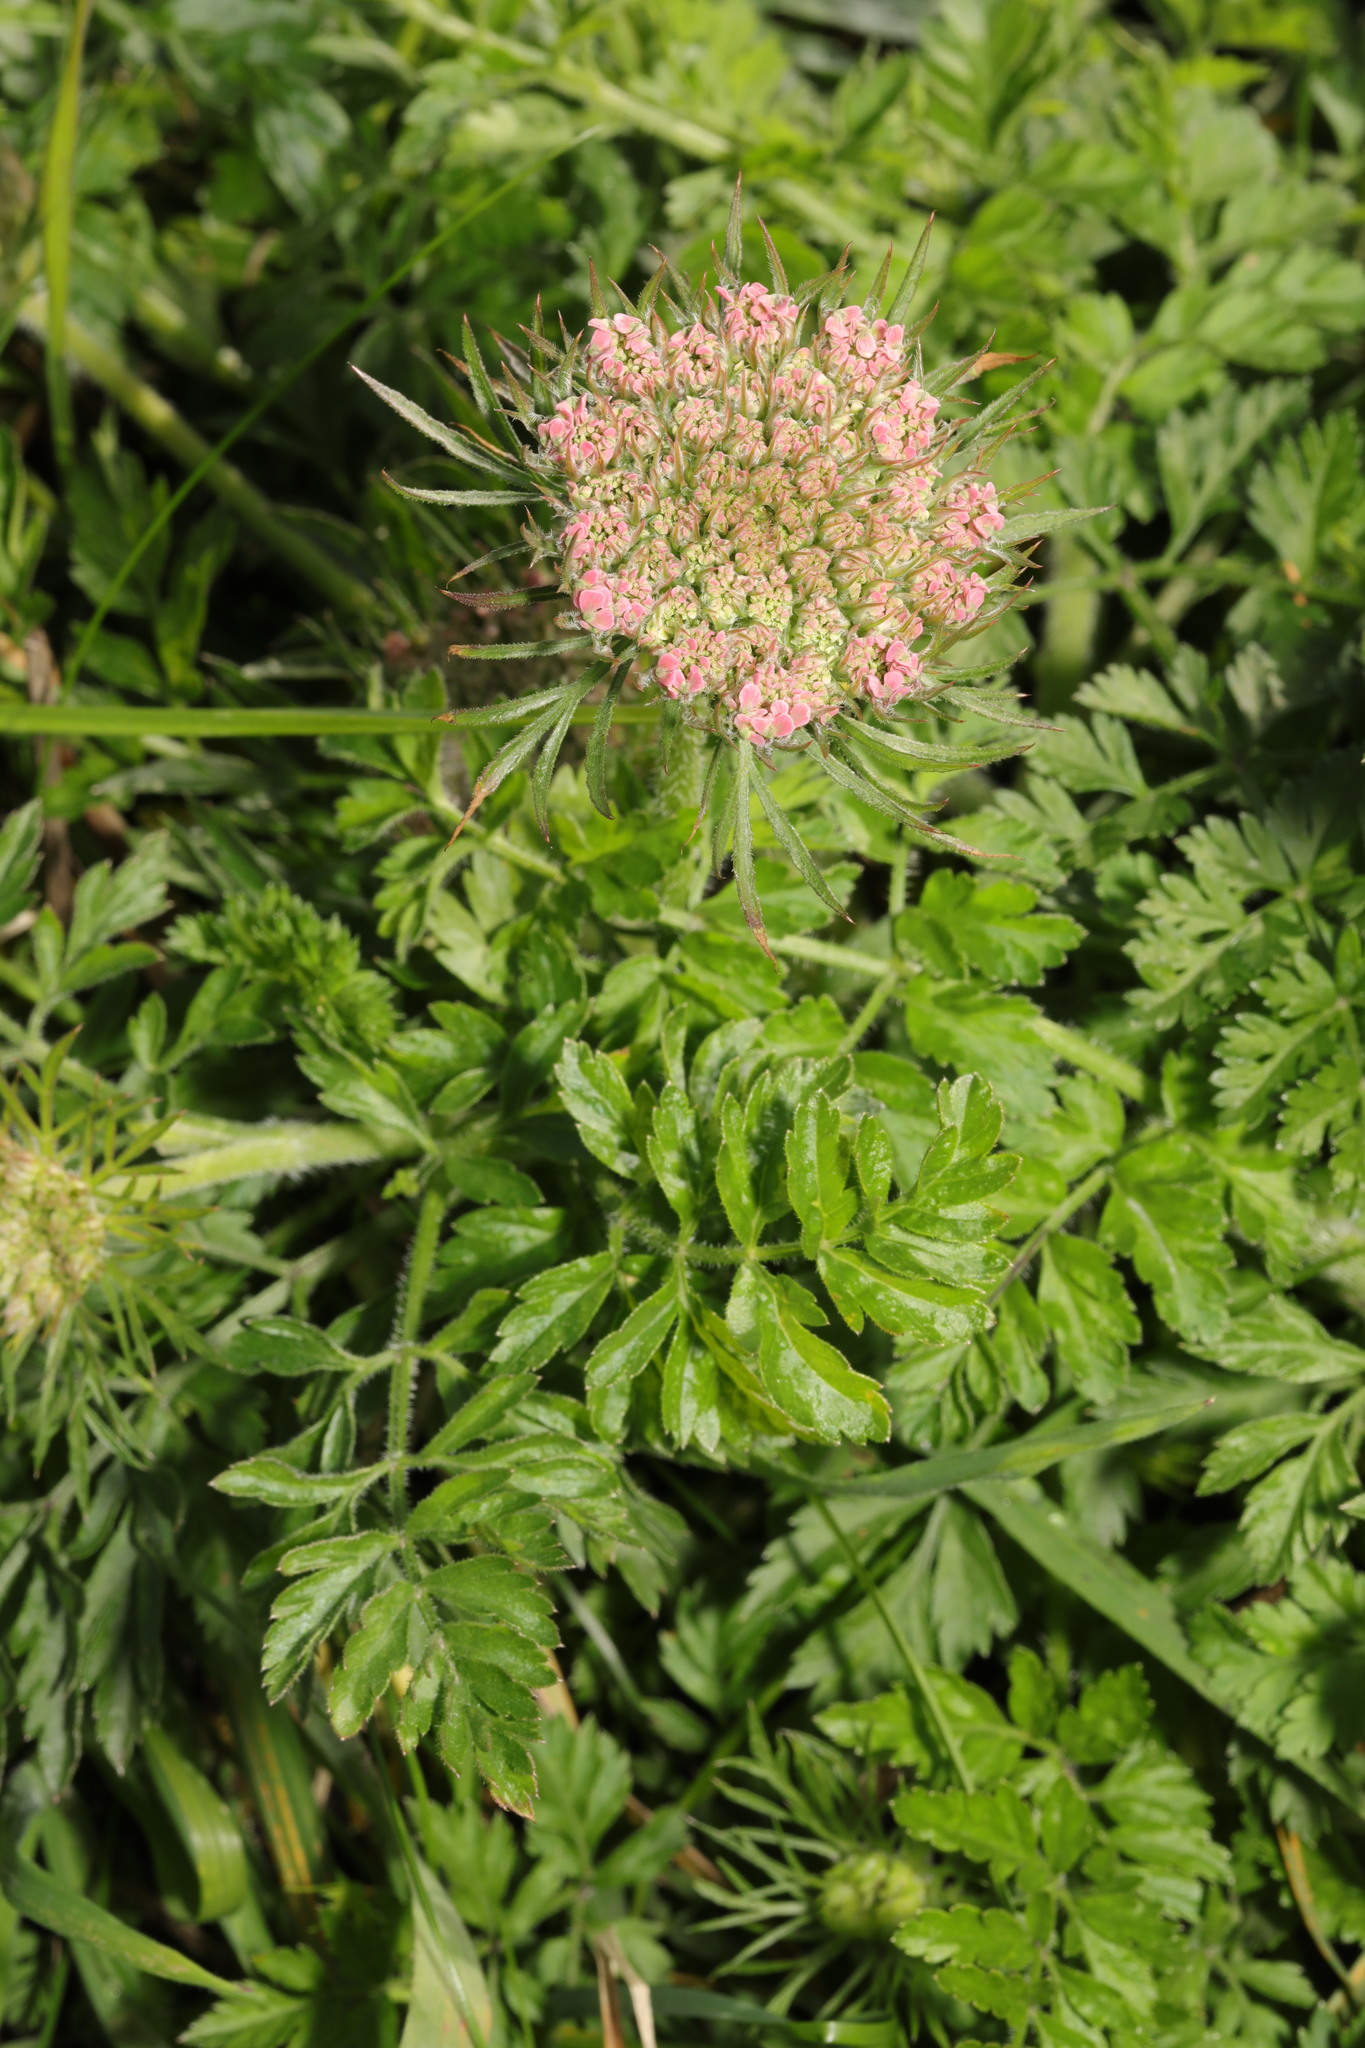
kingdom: Plantae
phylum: Tracheophyta
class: Magnoliopsida
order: Apiales
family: Apiaceae
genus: Daucus
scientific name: Daucus carota
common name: Wild carrot
